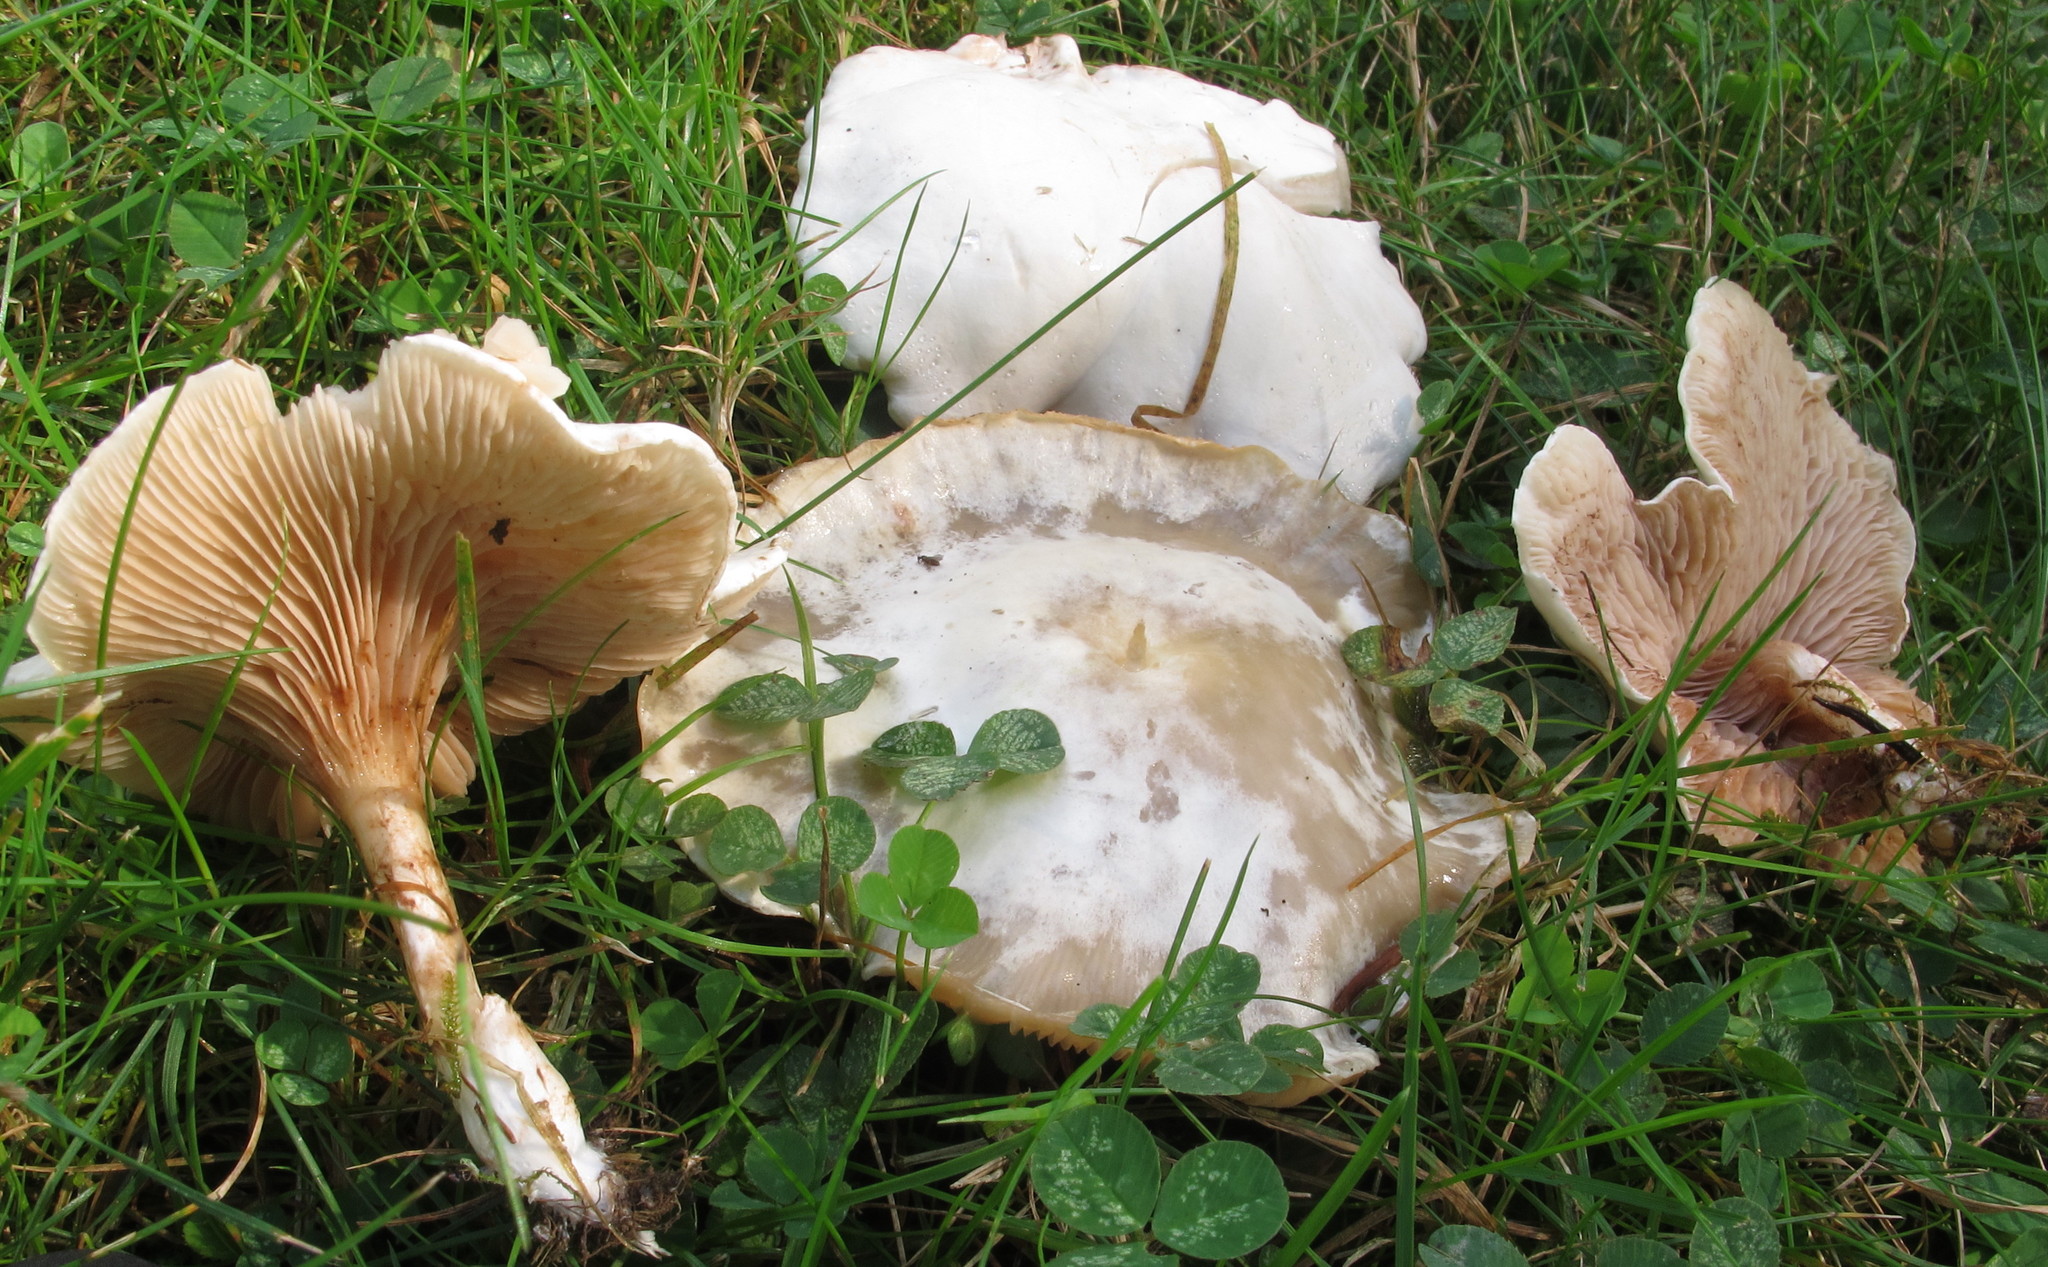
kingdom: Fungi
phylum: Basidiomycota
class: Agaricomycetes
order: Agaricales
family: Entolomataceae
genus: Clitopilus
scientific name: Clitopilus prunulus
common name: The miller
